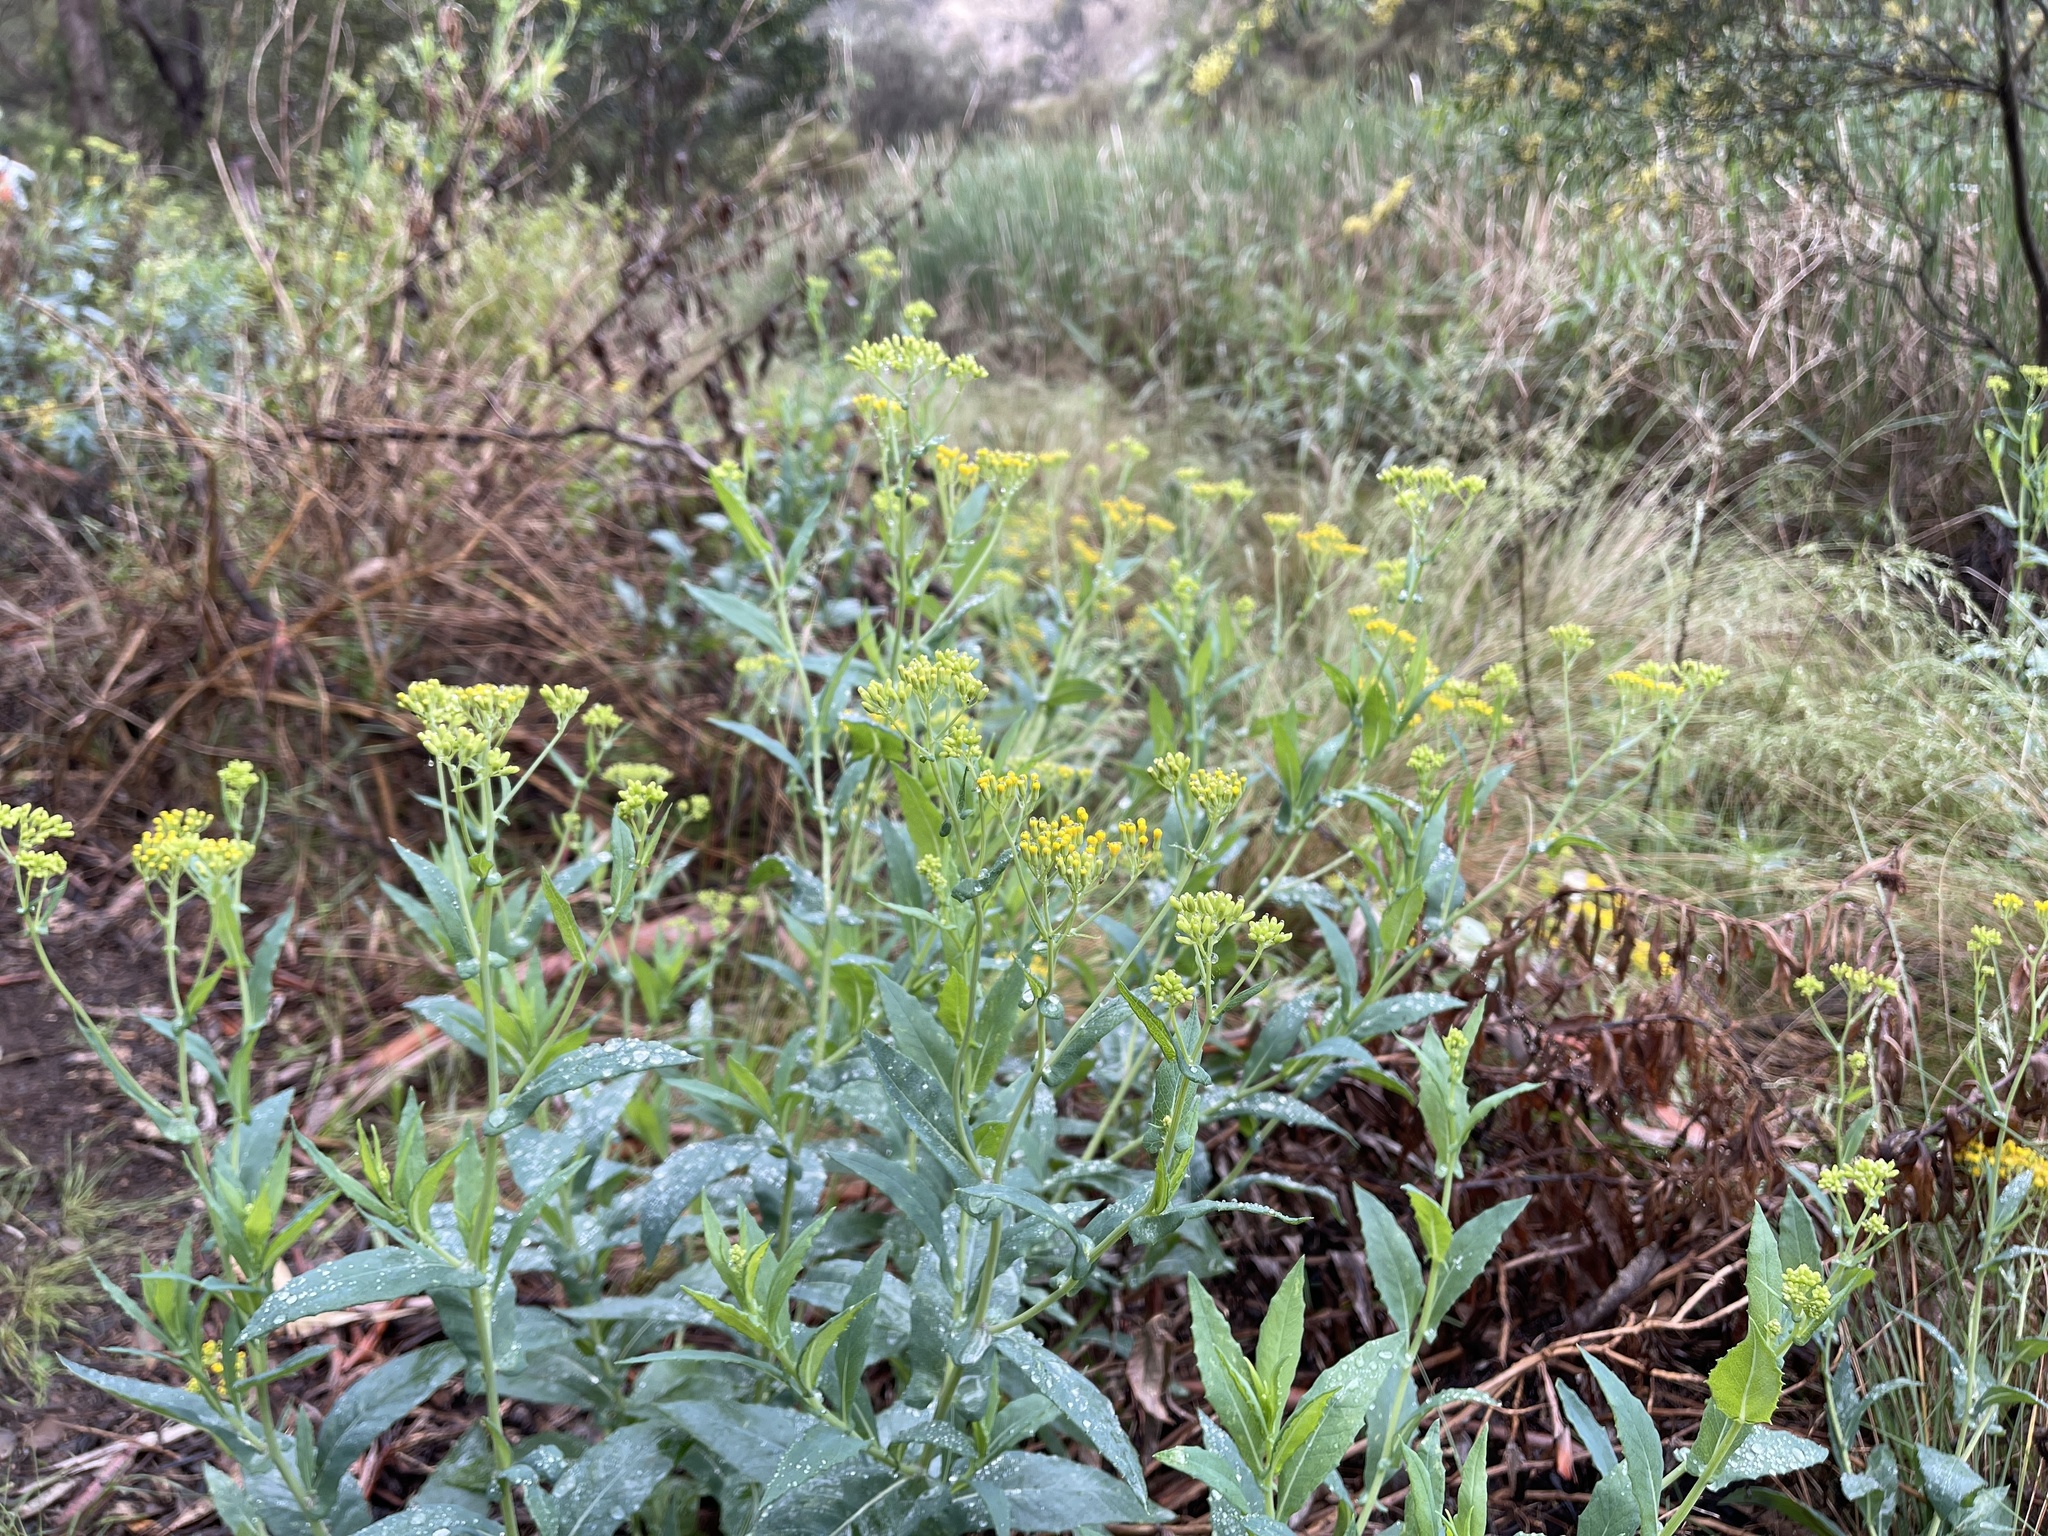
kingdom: Plantae
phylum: Tracheophyta
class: Magnoliopsida
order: Asterales
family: Asteraceae
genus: Senecio
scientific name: Senecio odoratus
